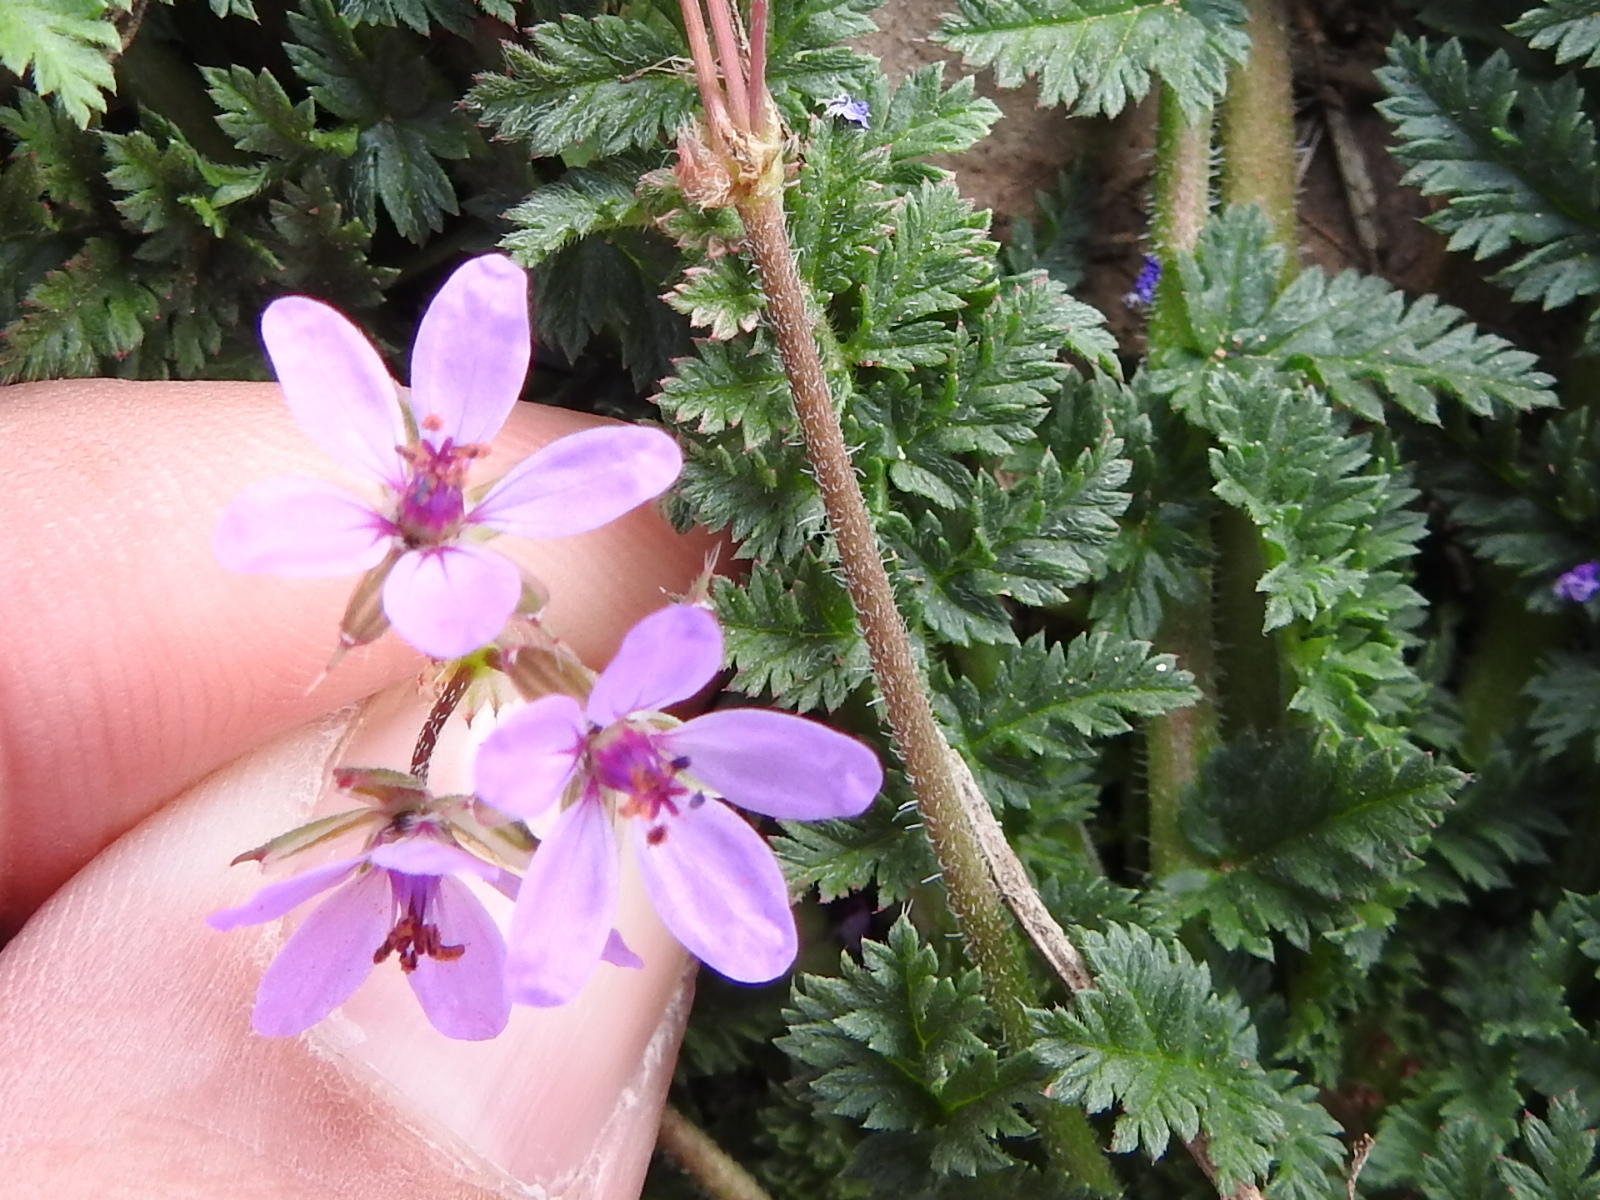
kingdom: Plantae
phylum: Tracheophyta
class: Magnoliopsida
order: Geraniales
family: Geraniaceae
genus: Erodium
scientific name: Erodium cicutarium
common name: Common stork's-bill
